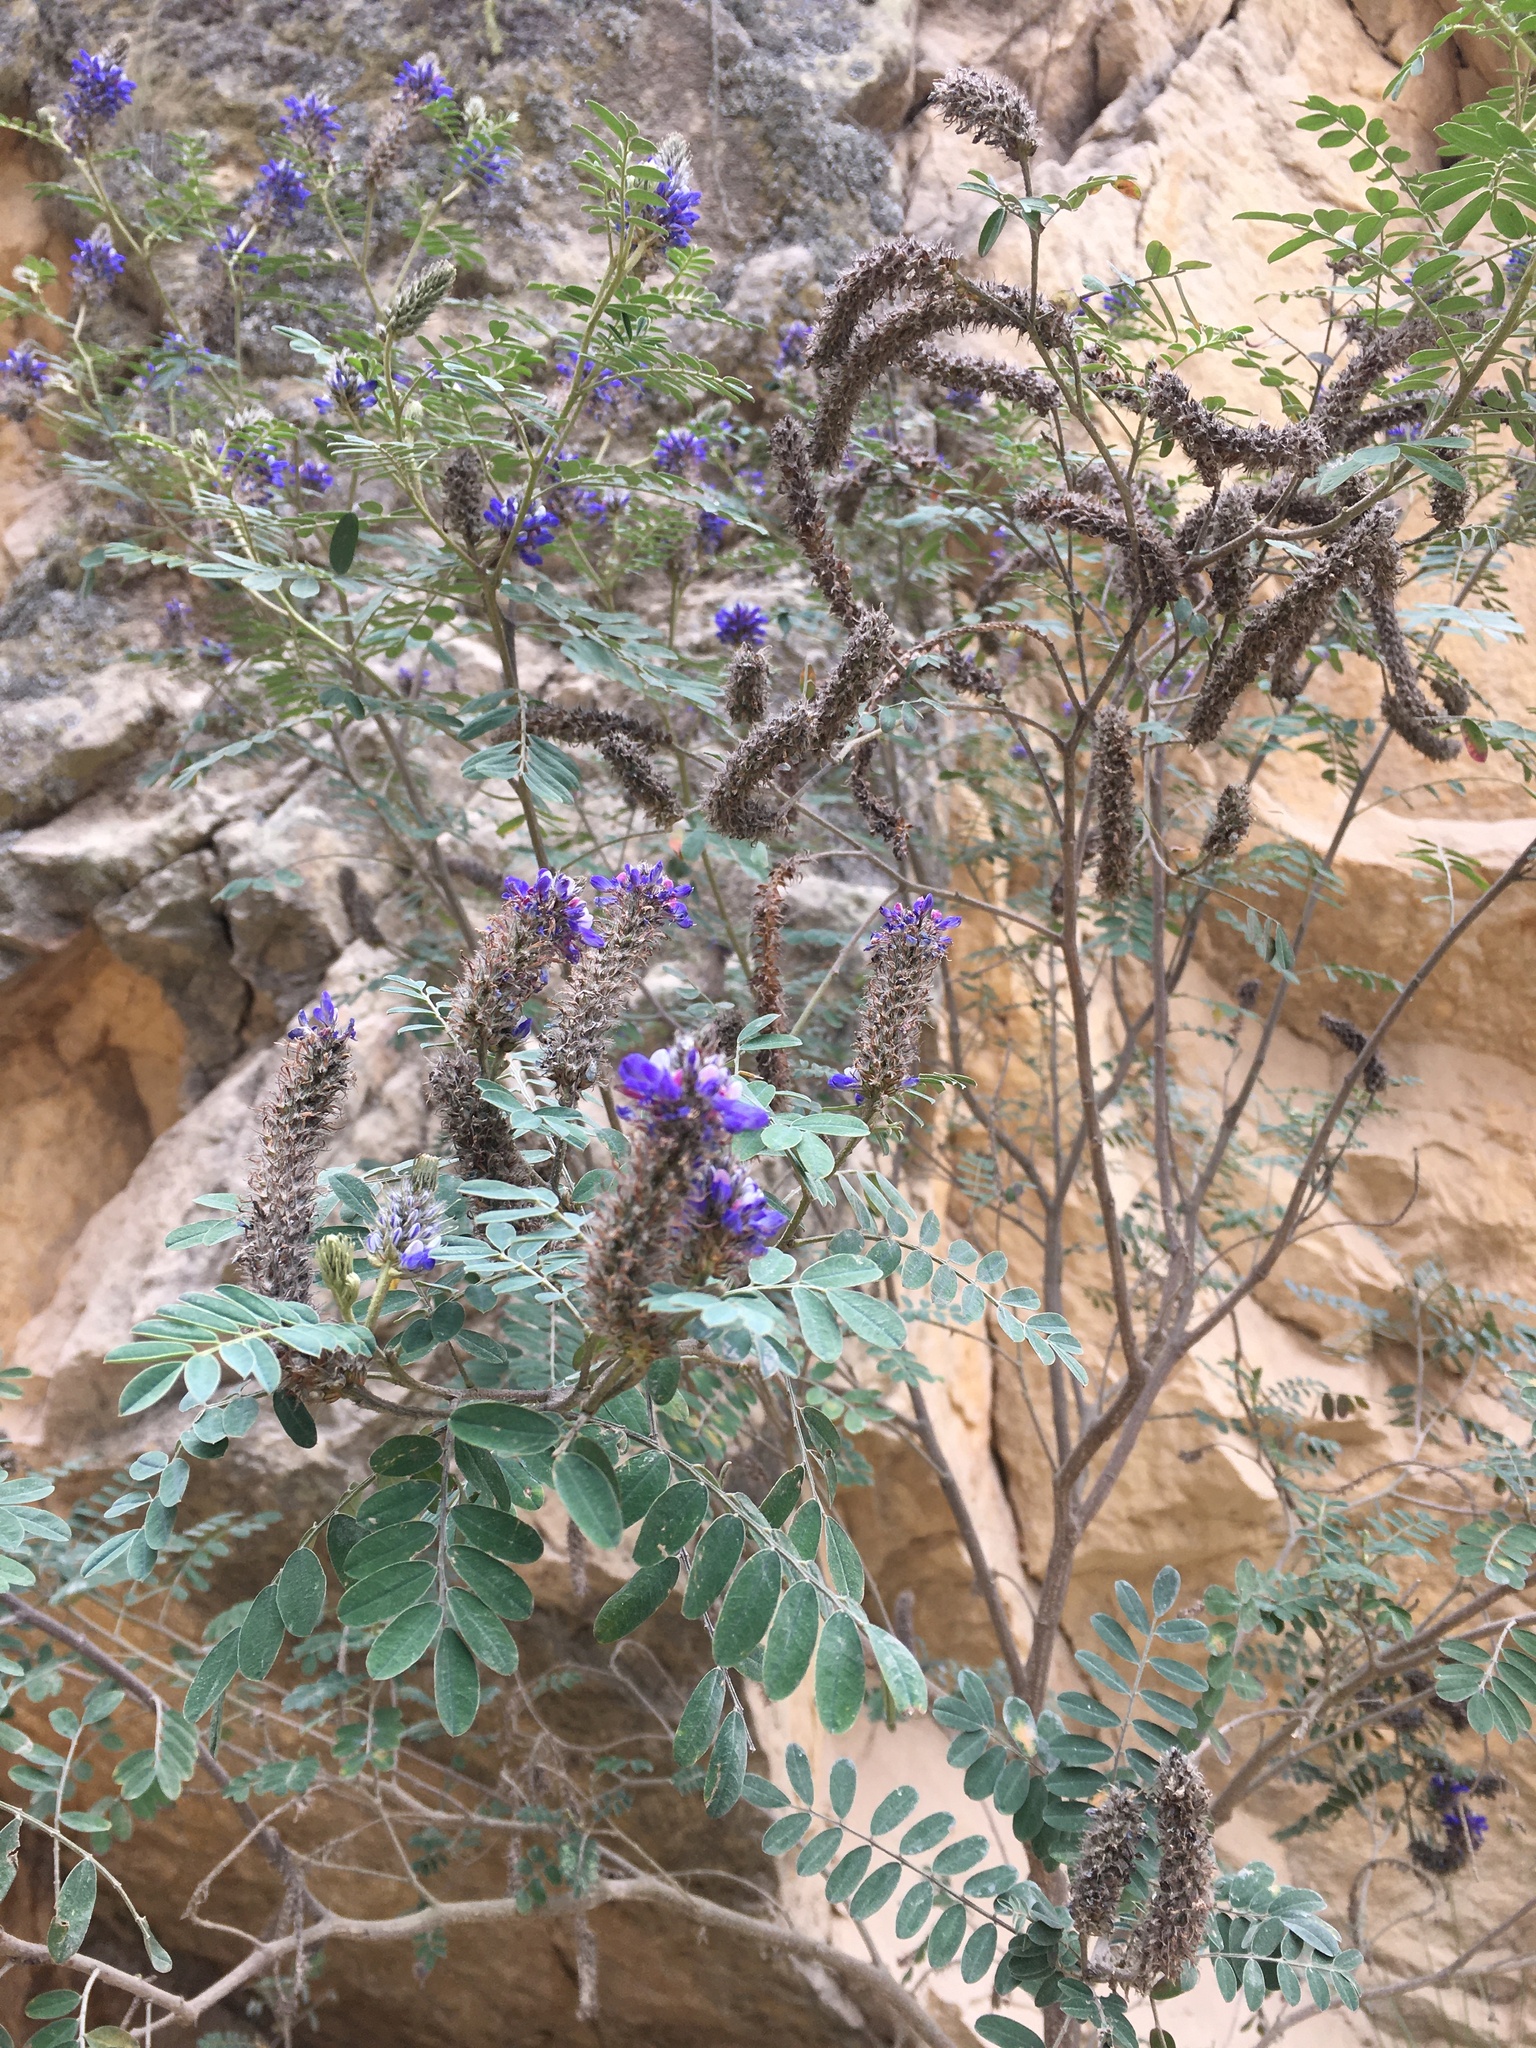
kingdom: Plantae
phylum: Tracheophyta
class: Magnoliopsida
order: Fabales
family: Fabaceae
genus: Dalea
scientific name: Dalea coerulea
